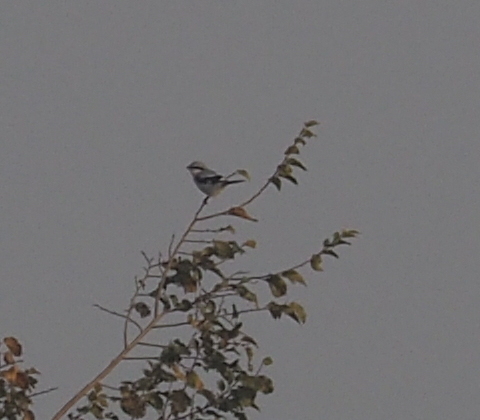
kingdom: Animalia
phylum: Chordata
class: Aves
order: Passeriformes
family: Laniidae
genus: Lanius
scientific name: Lanius excubitor
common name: Great grey shrike
